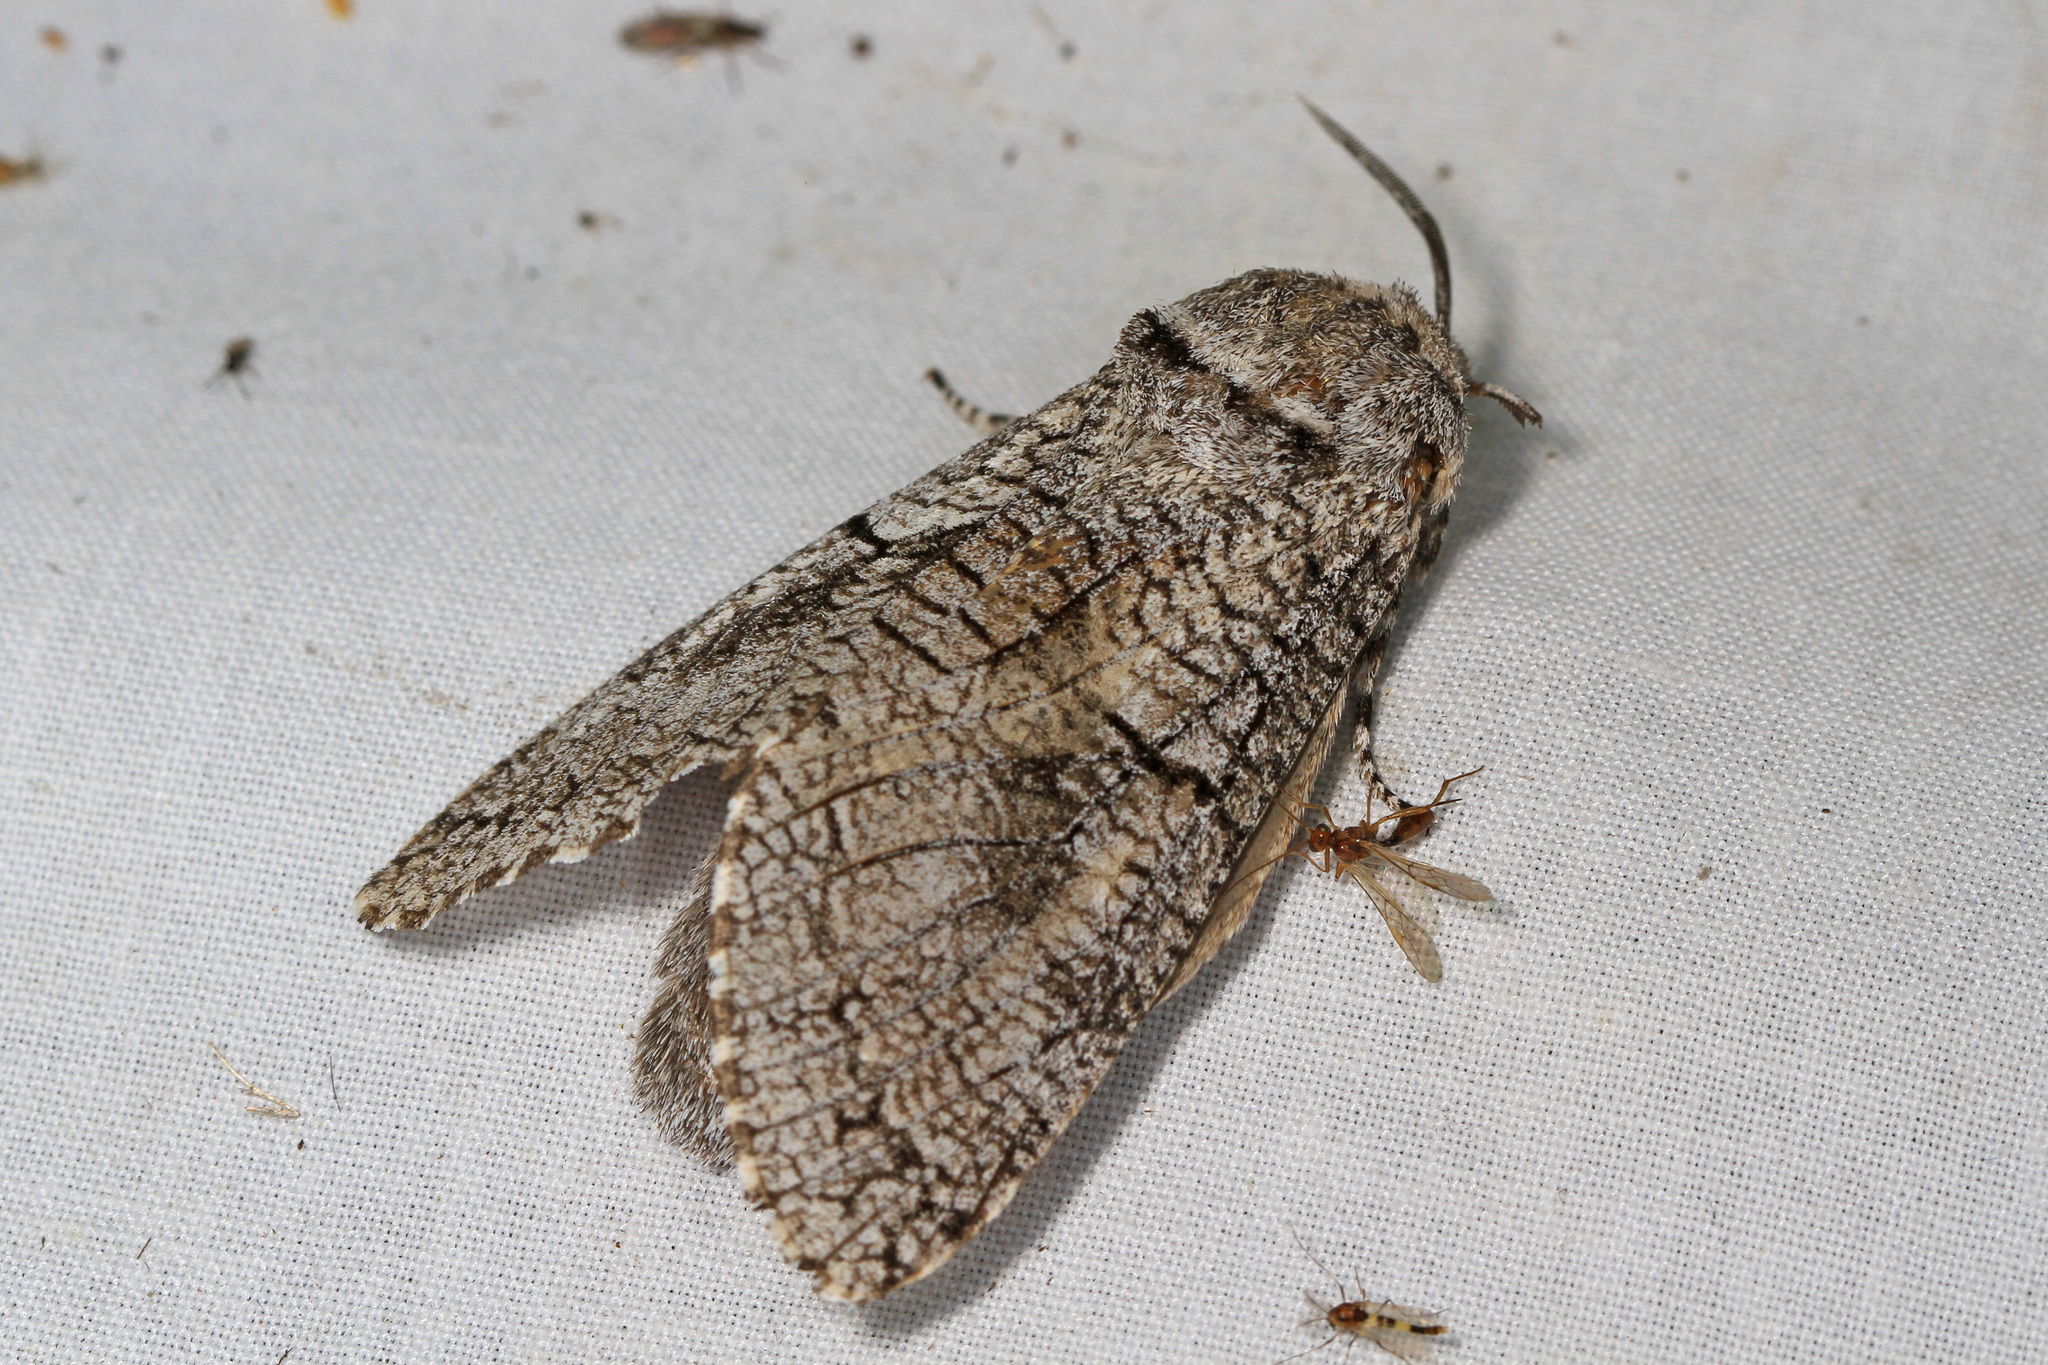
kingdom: Animalia
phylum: Arthropoda
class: Insecta
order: Lepidoptera
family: Cossidae
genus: Acossus
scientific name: Acossus populi
